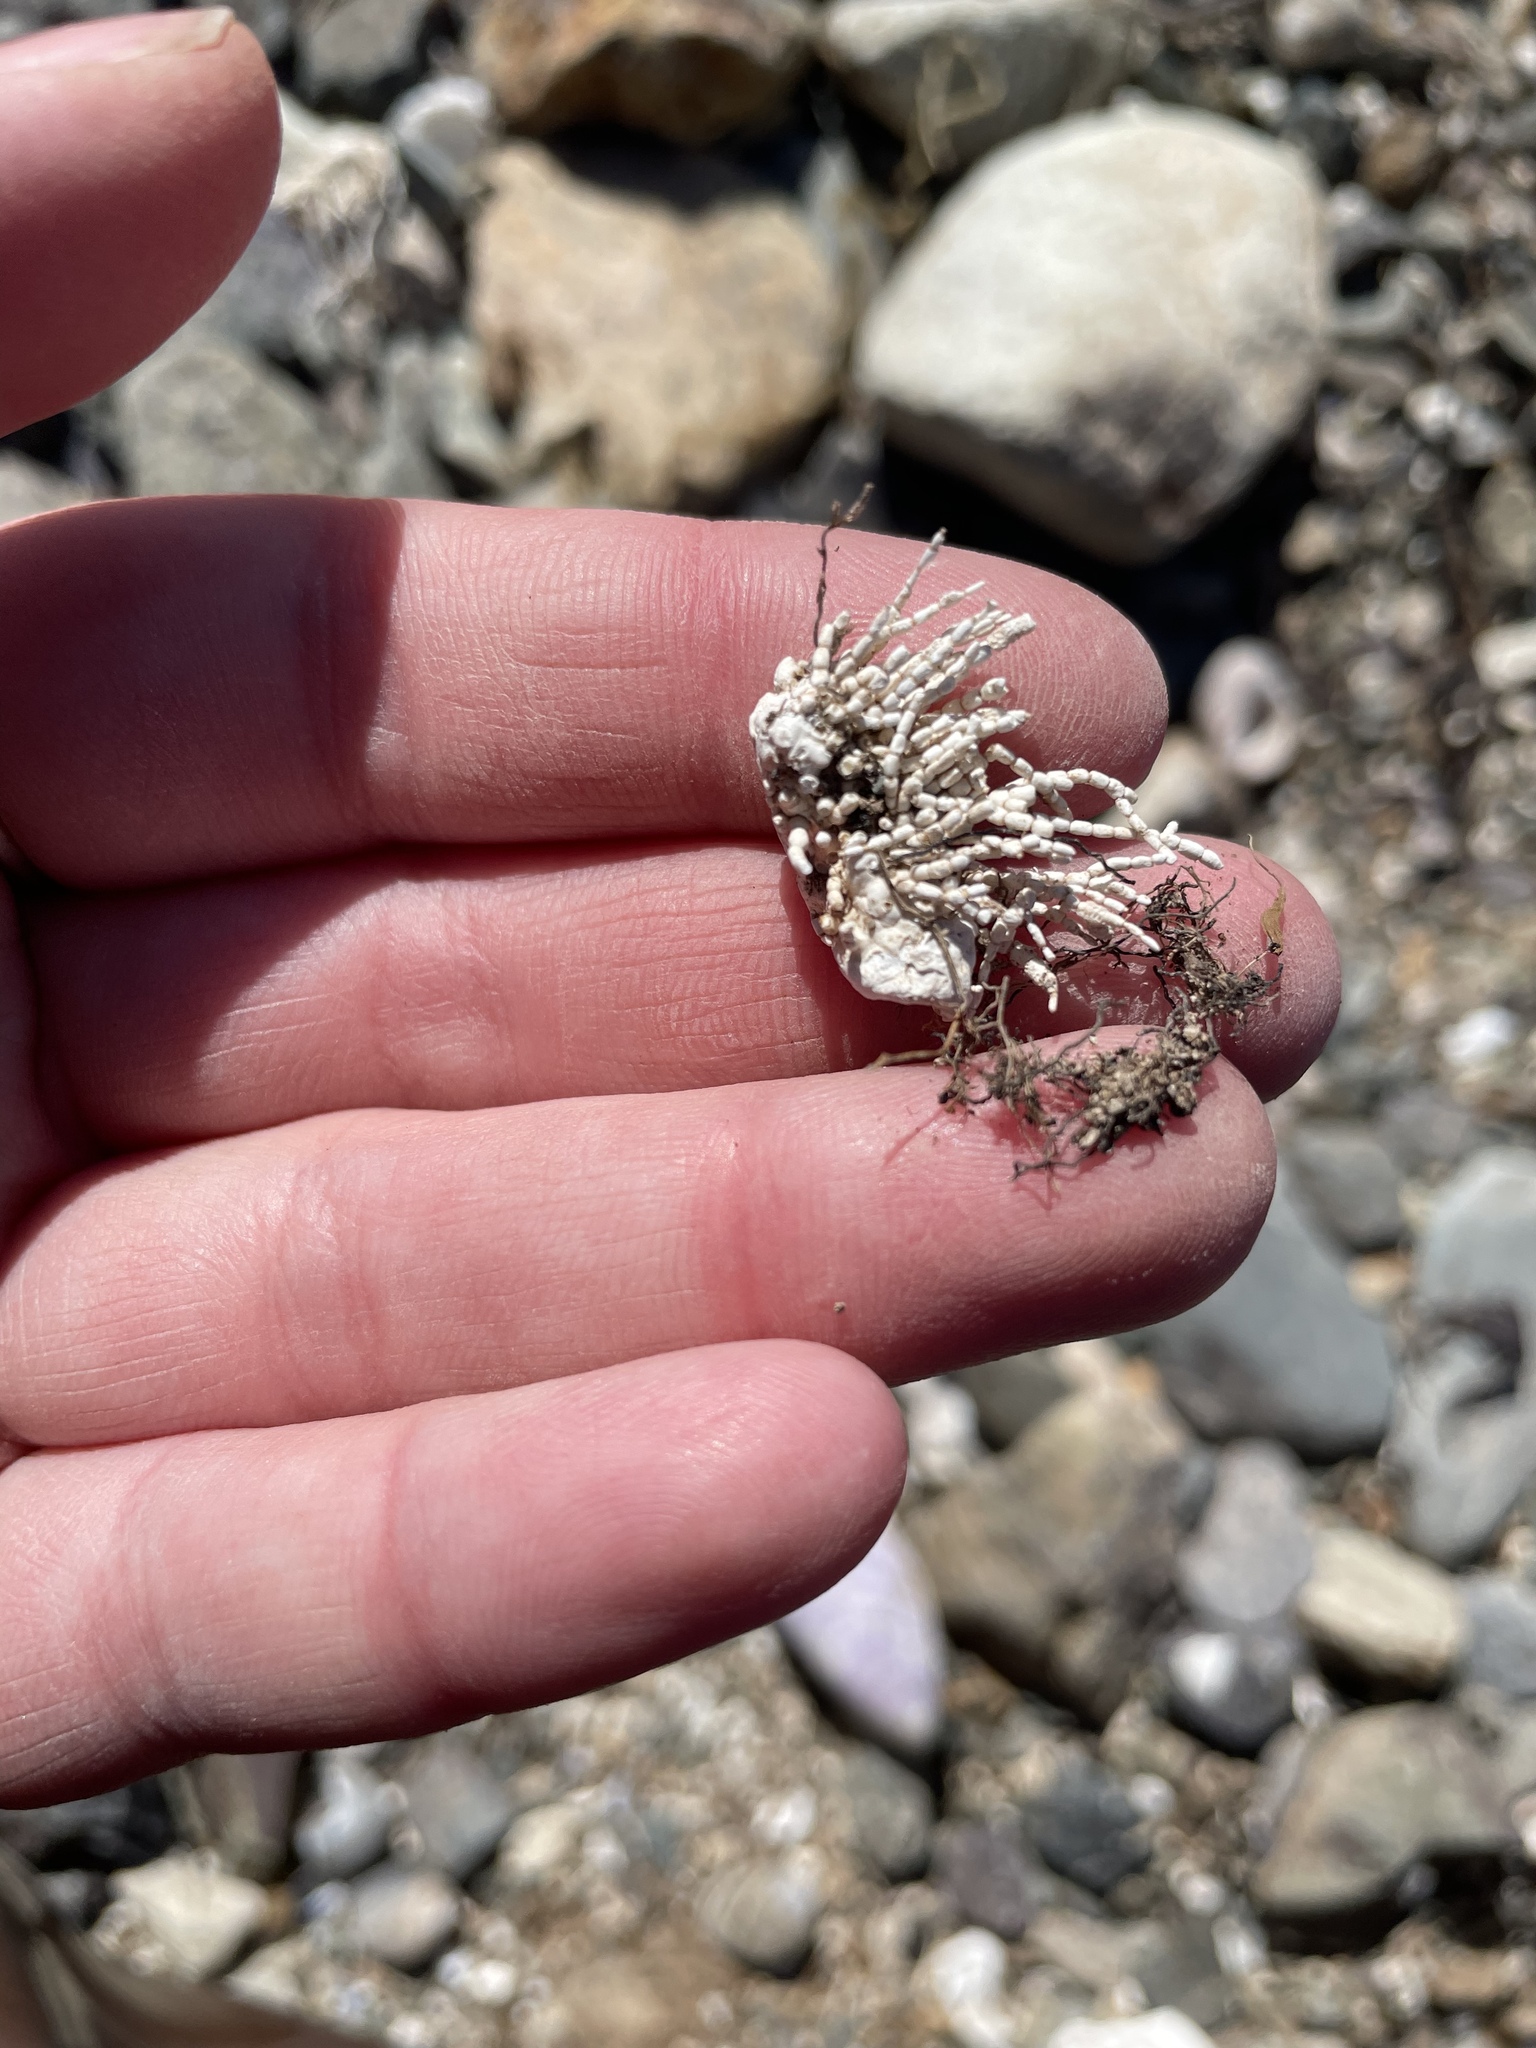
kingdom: Plantae
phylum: Rhodophyta
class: Florideophyceae
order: Corallinales
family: Corallinaceae
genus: Corallina
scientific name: Corallina officinalis
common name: Coral weed
